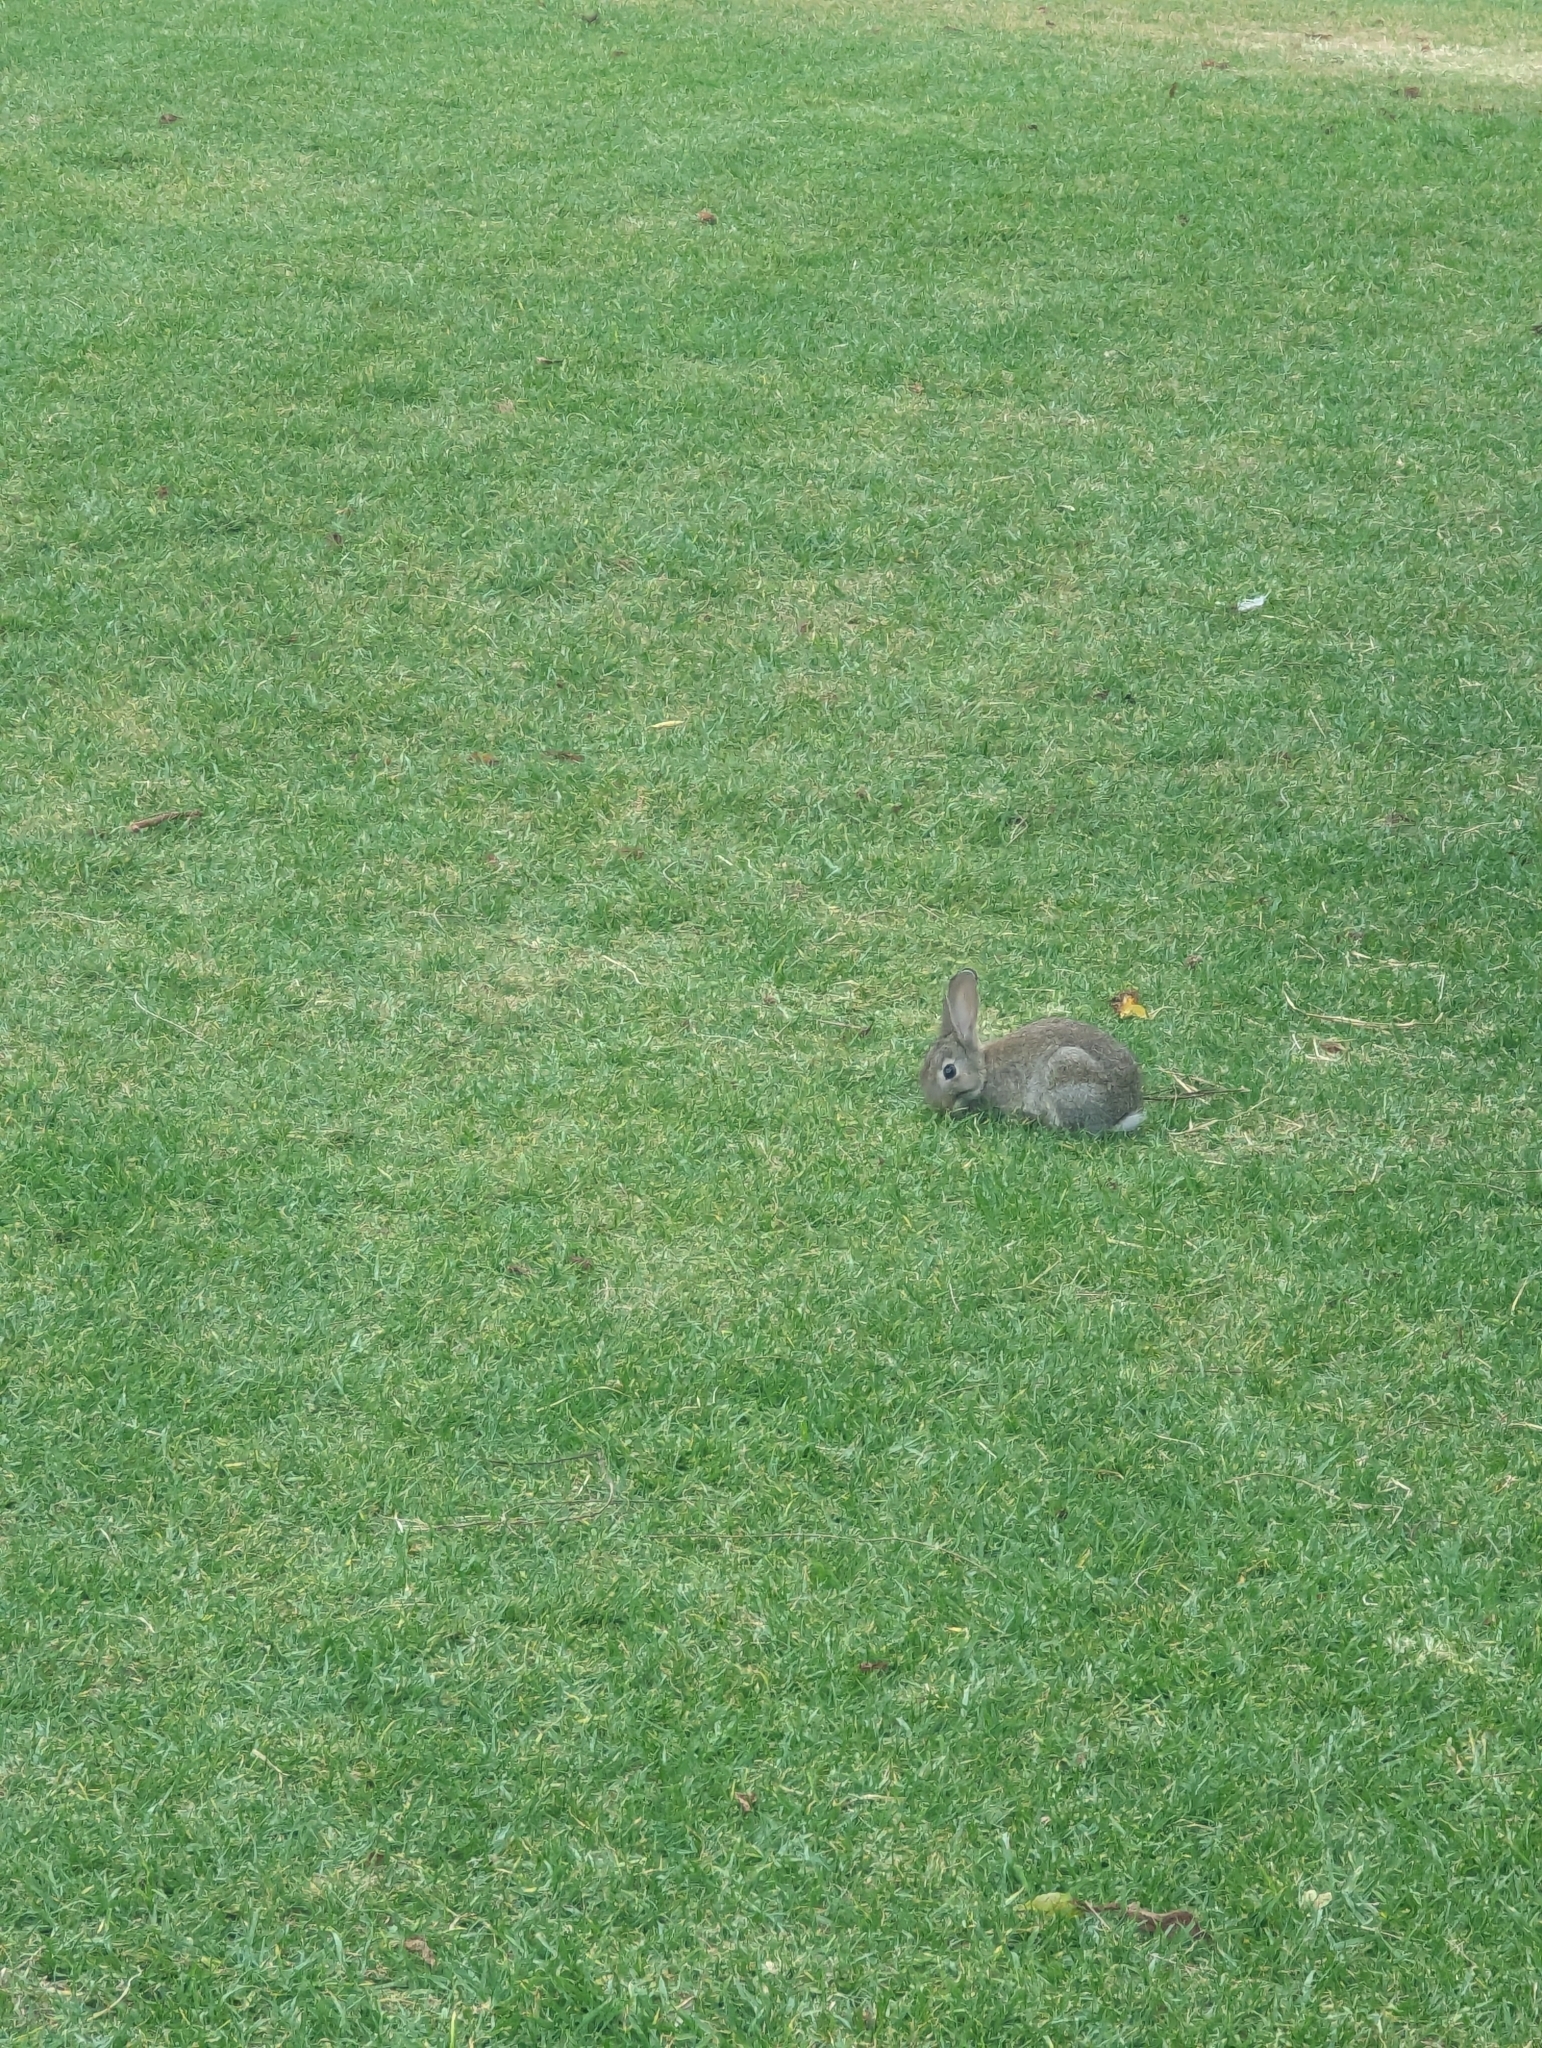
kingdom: Animalia
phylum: Chordata
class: Mammalia
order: Lagomorpha
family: Leporidae
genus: Oryctolagus
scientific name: Oryctolagus cuniculus
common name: European rabbit
